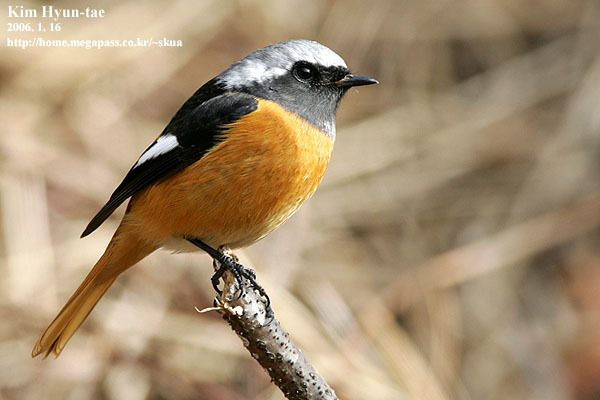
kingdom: Animalia
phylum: Chordata
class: Aves
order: Passeriformes
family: Muscicapidae
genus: Phoenicurus
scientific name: Phoenicurus auroreus
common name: Daurian redstart
